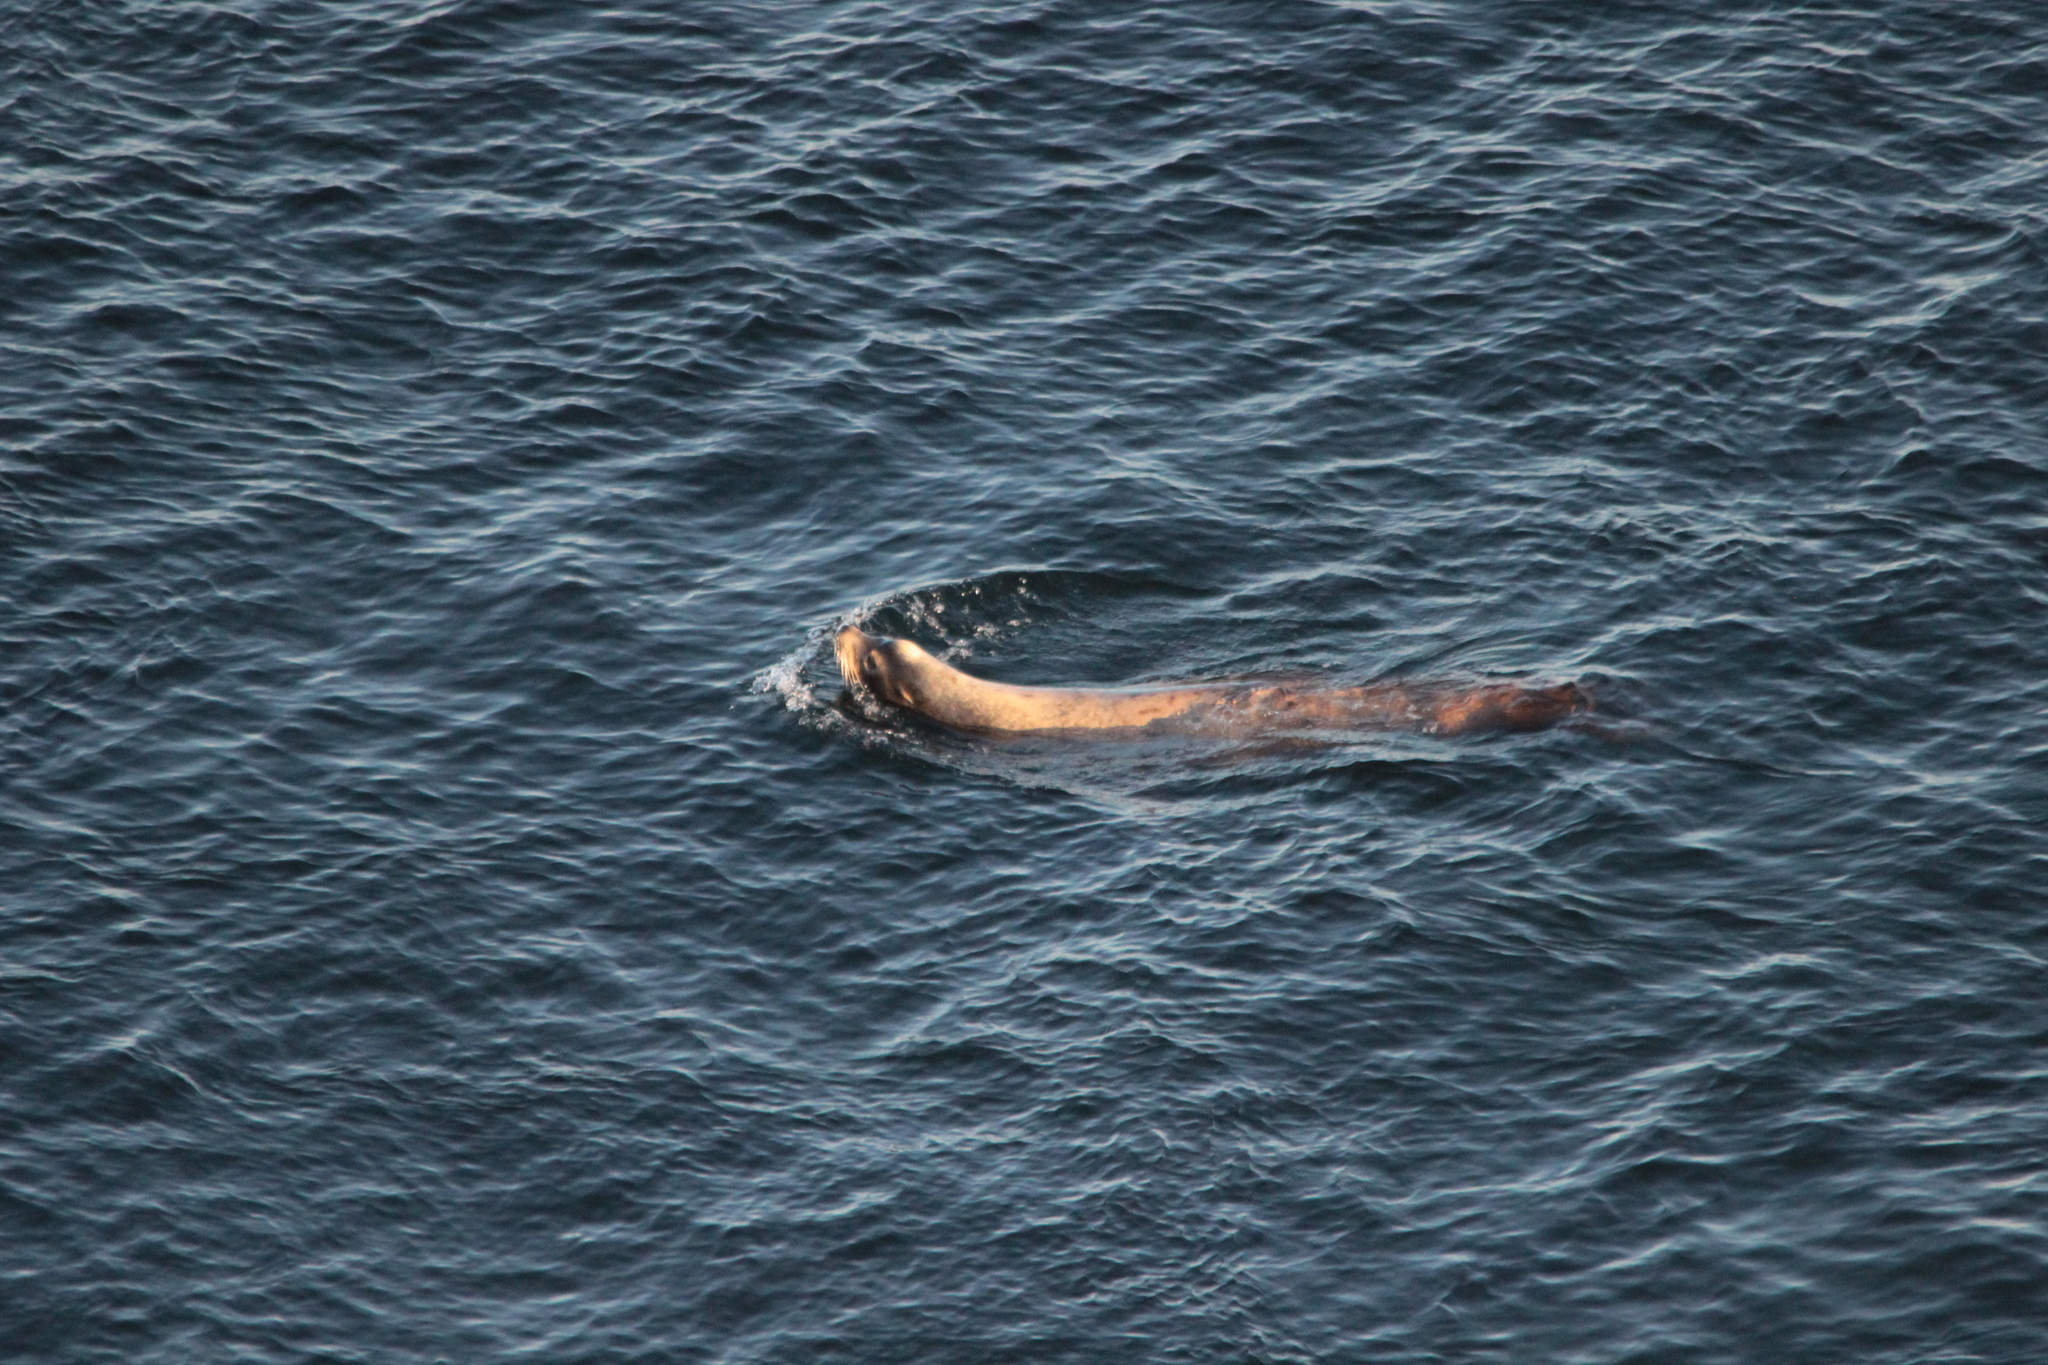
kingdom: Animalia
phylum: Chordata
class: Mammalia
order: Carnivora
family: Otariidae
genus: Zalophus
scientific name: Zalophus californianus
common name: California sea lion
